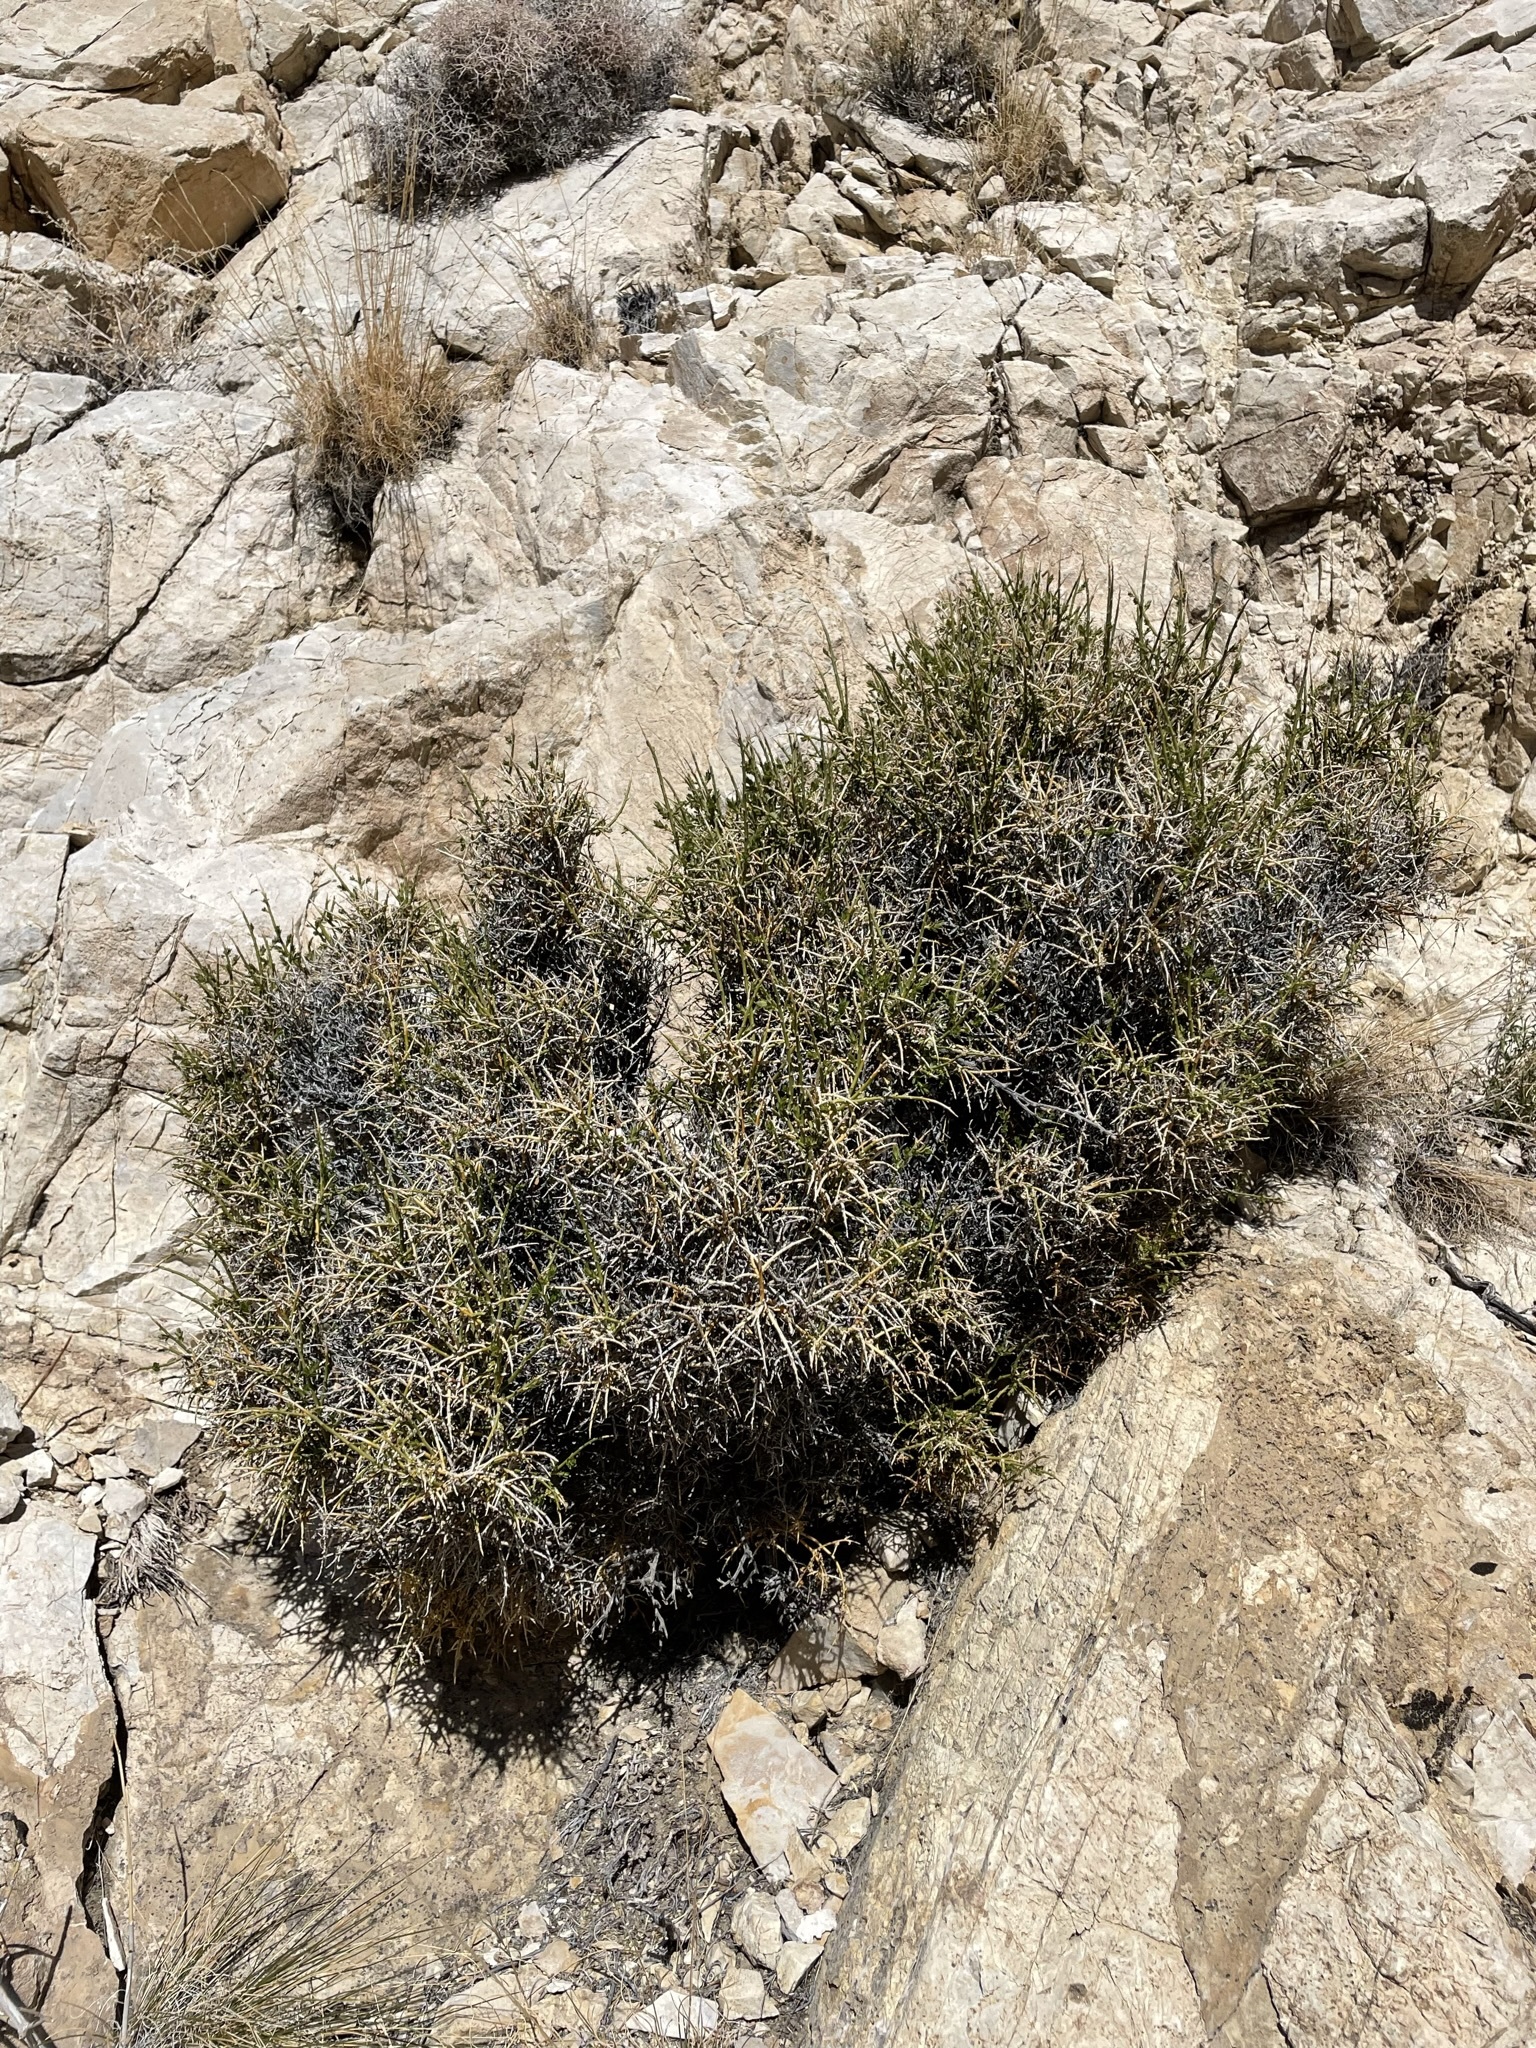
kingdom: Plantae
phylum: Tracheophyta
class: Magnoliopsida
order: Crossosomatales
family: Crossosomataceae
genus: Glossopetalon
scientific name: Glossopetalon spinescens
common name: Spring greasebush
